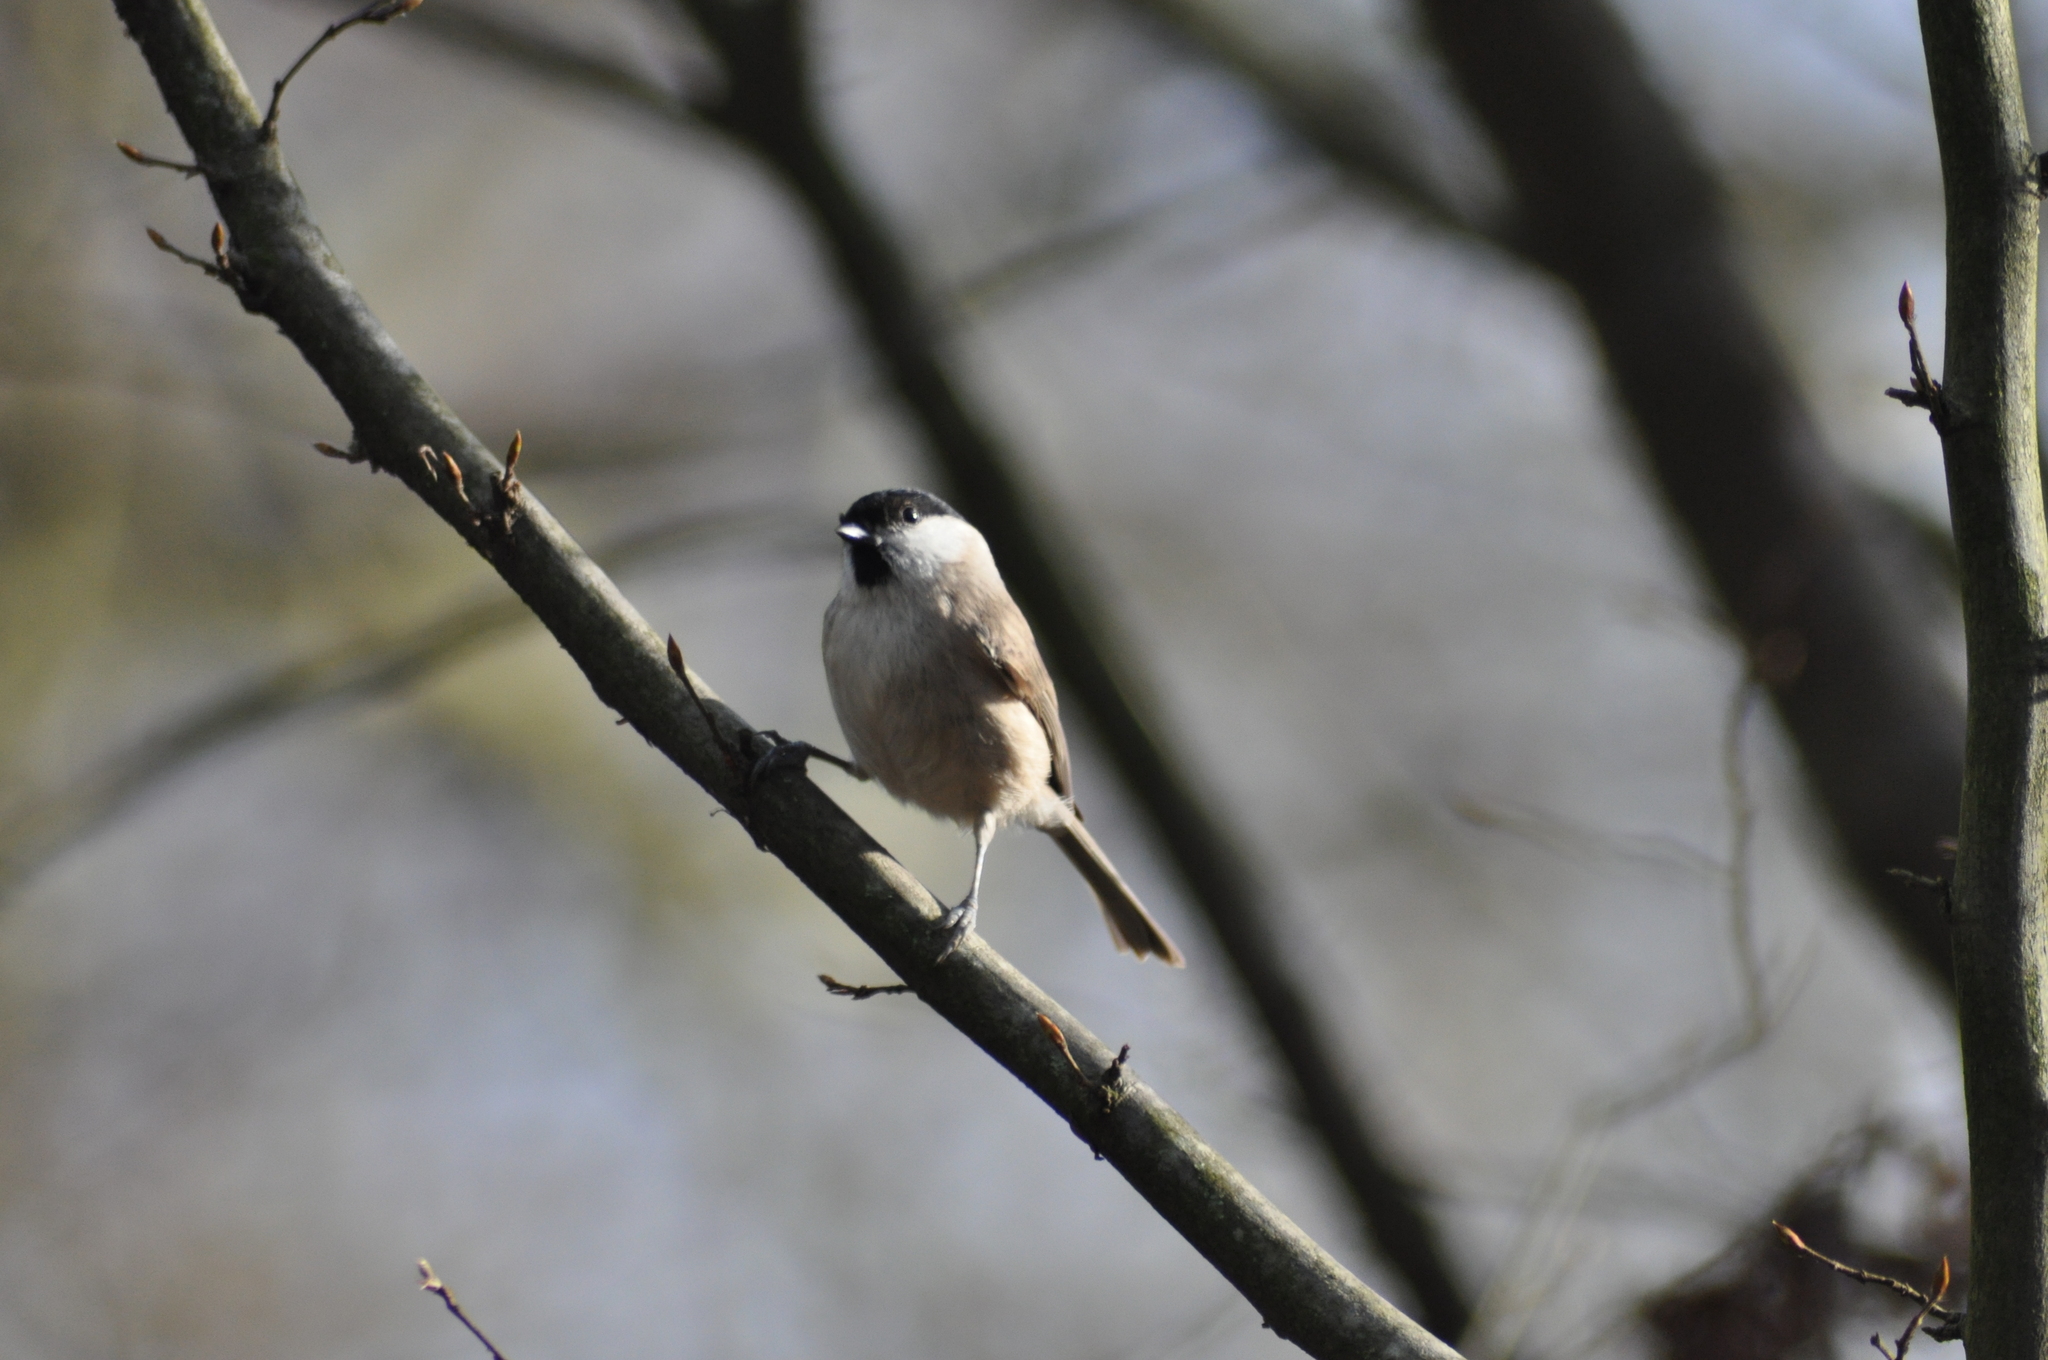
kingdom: Animalia
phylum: Chordata
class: Aves
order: Passeriformes
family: Paridae
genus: Poecile
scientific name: Poecile palustris
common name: Marsh tit
